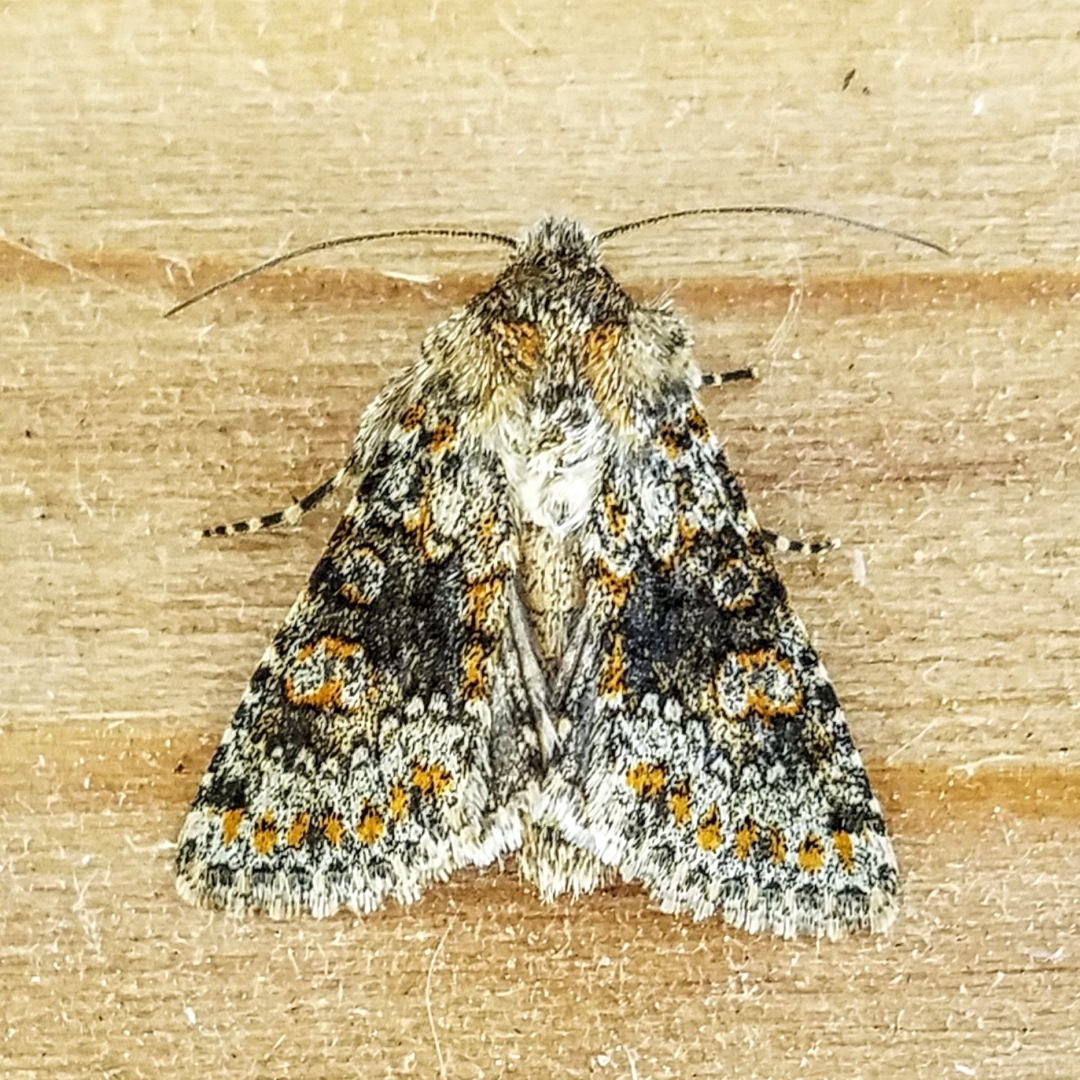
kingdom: Animalia
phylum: Arthropoda
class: Insecta
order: Lepidoptera
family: Noctuidae
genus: Hecatera
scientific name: Hecatera dysodea
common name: Small ranunculus
